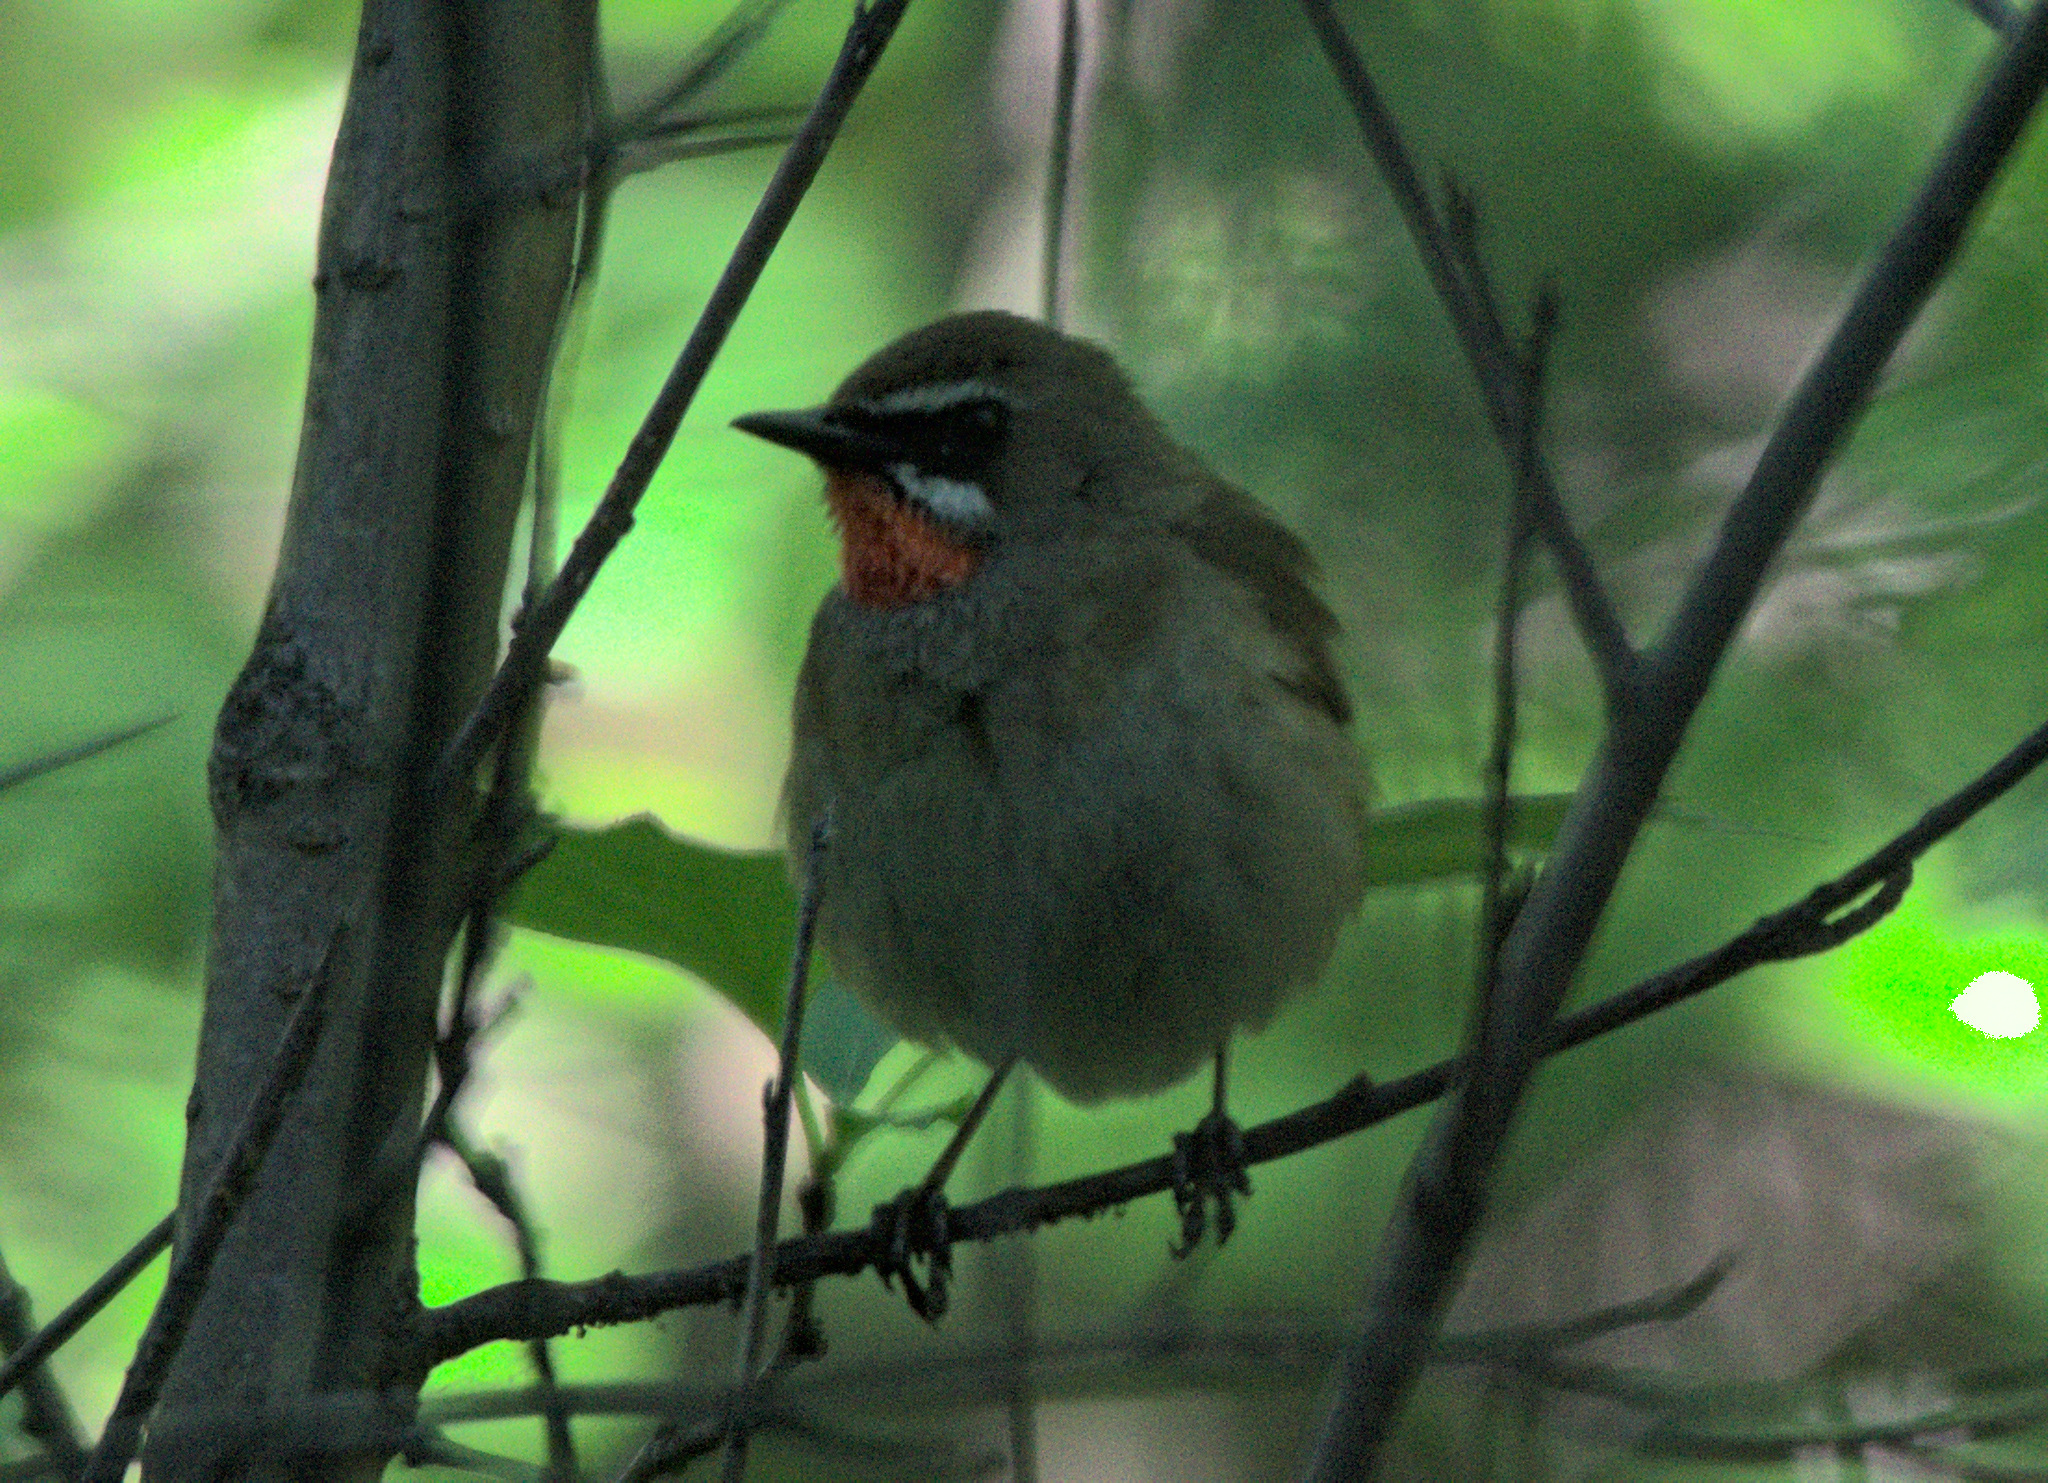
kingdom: Animalia
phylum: Chordata
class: Aves
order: Passeriformes
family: Muscicapidae
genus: Luscinia
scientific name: Luscinia calliope
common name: Siberian rubythroat
